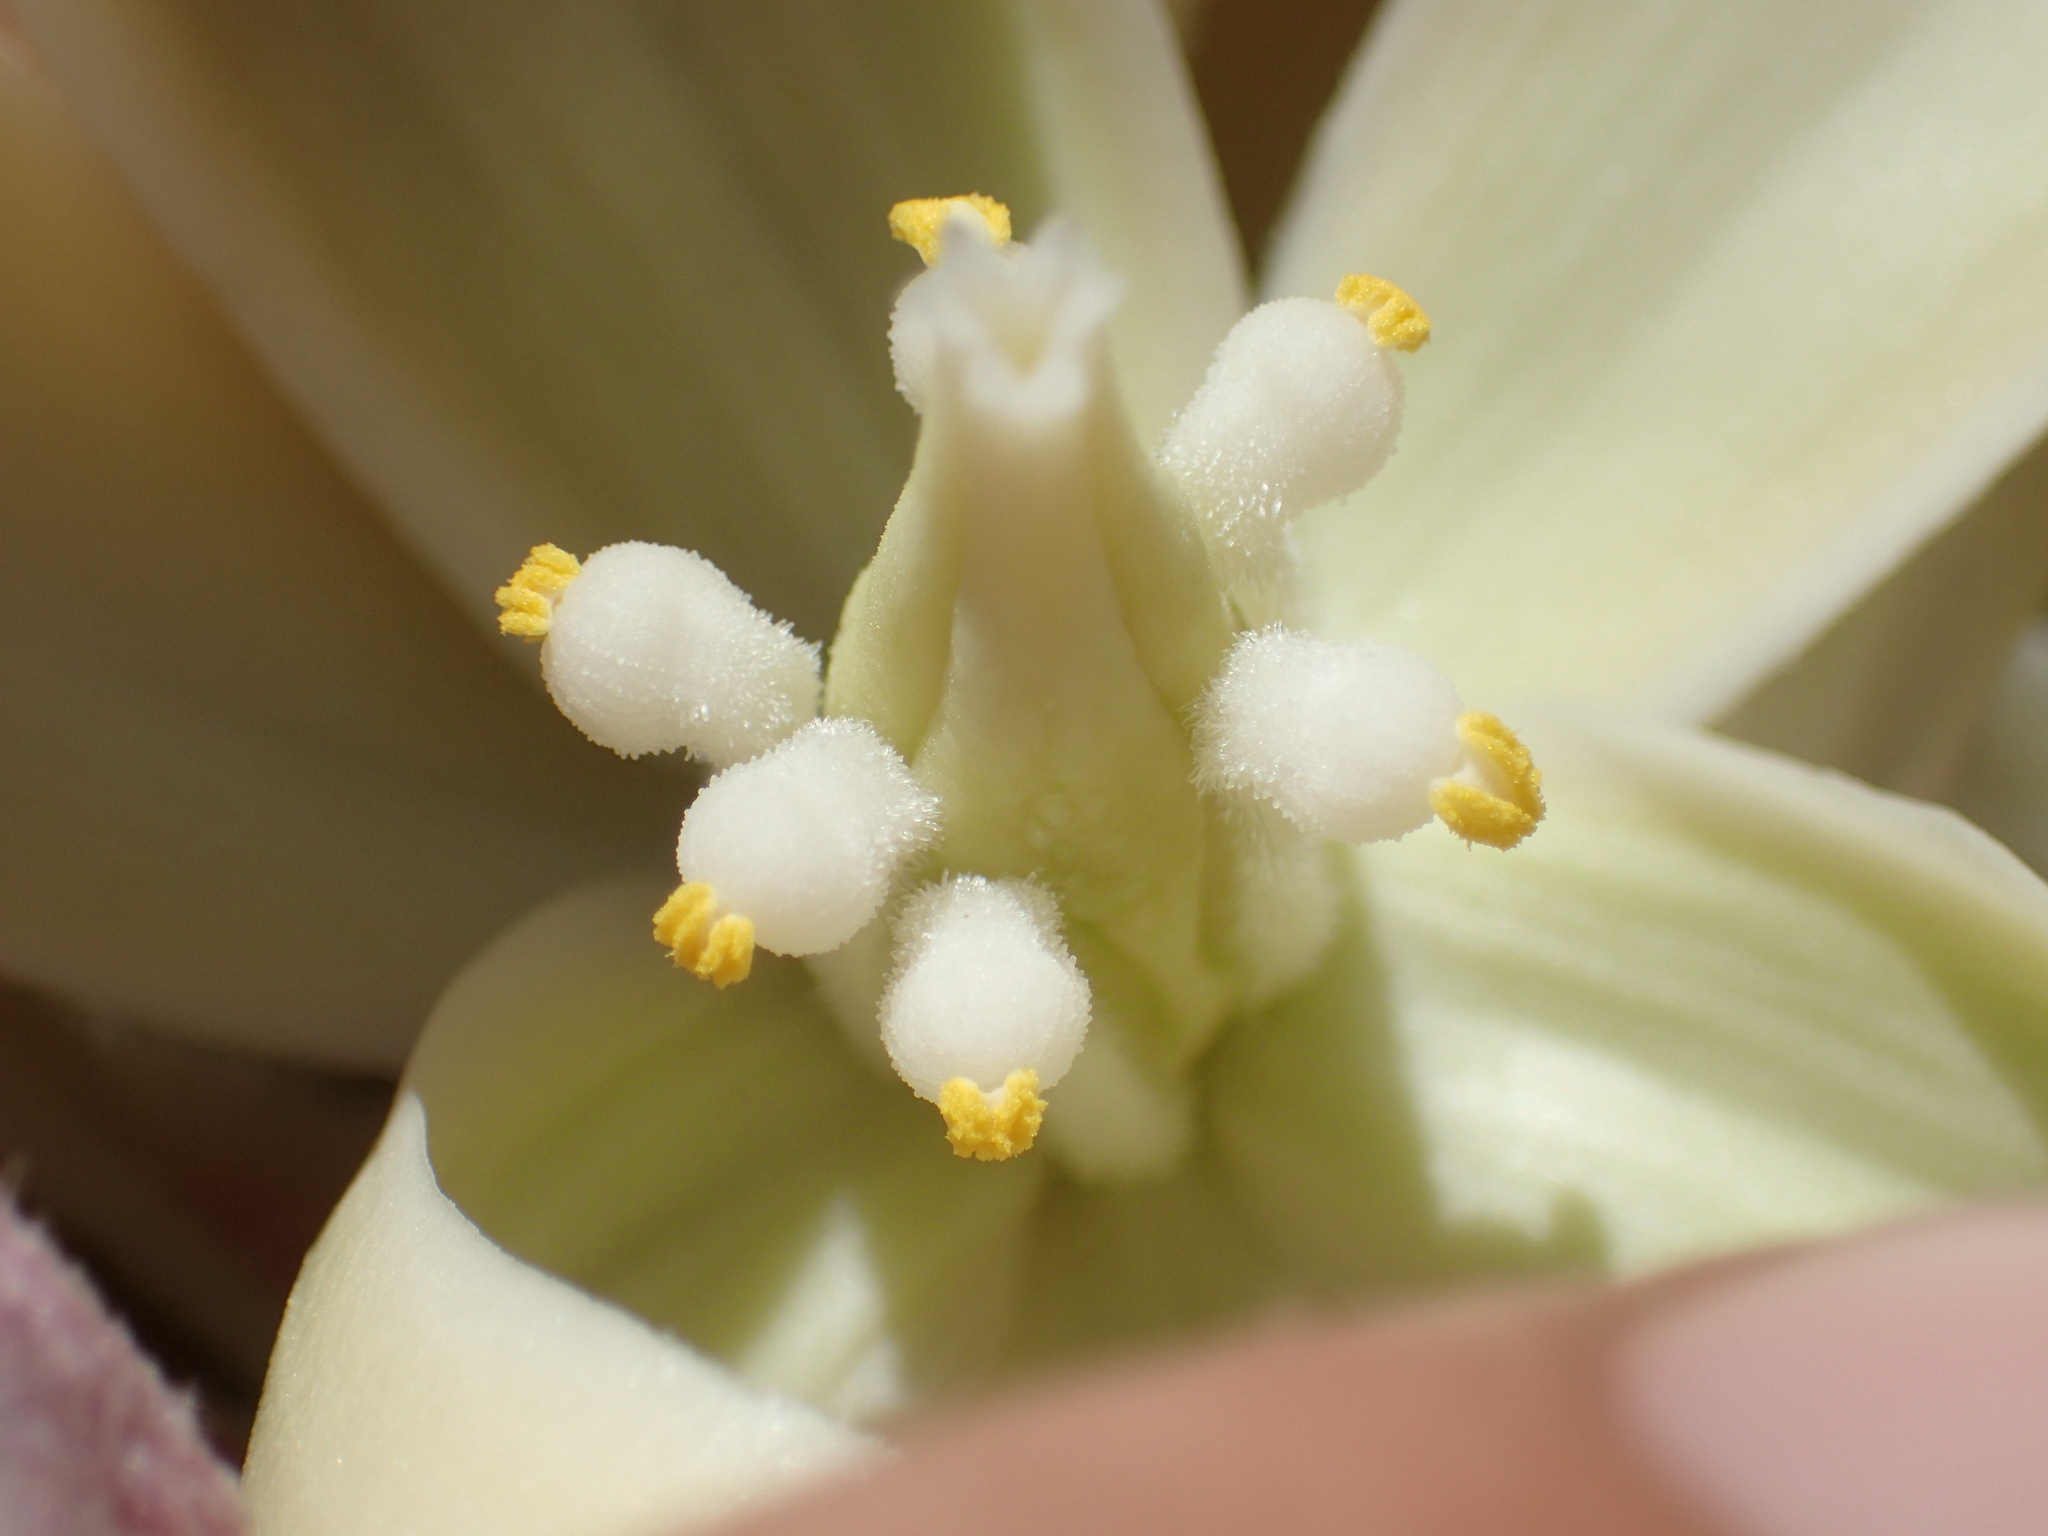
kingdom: Plantae
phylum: Tracheophyta
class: Liliopsida
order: Asparagales
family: Asparagaceae
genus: Yucca
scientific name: Yucca brevifolia
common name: Joshua tree
